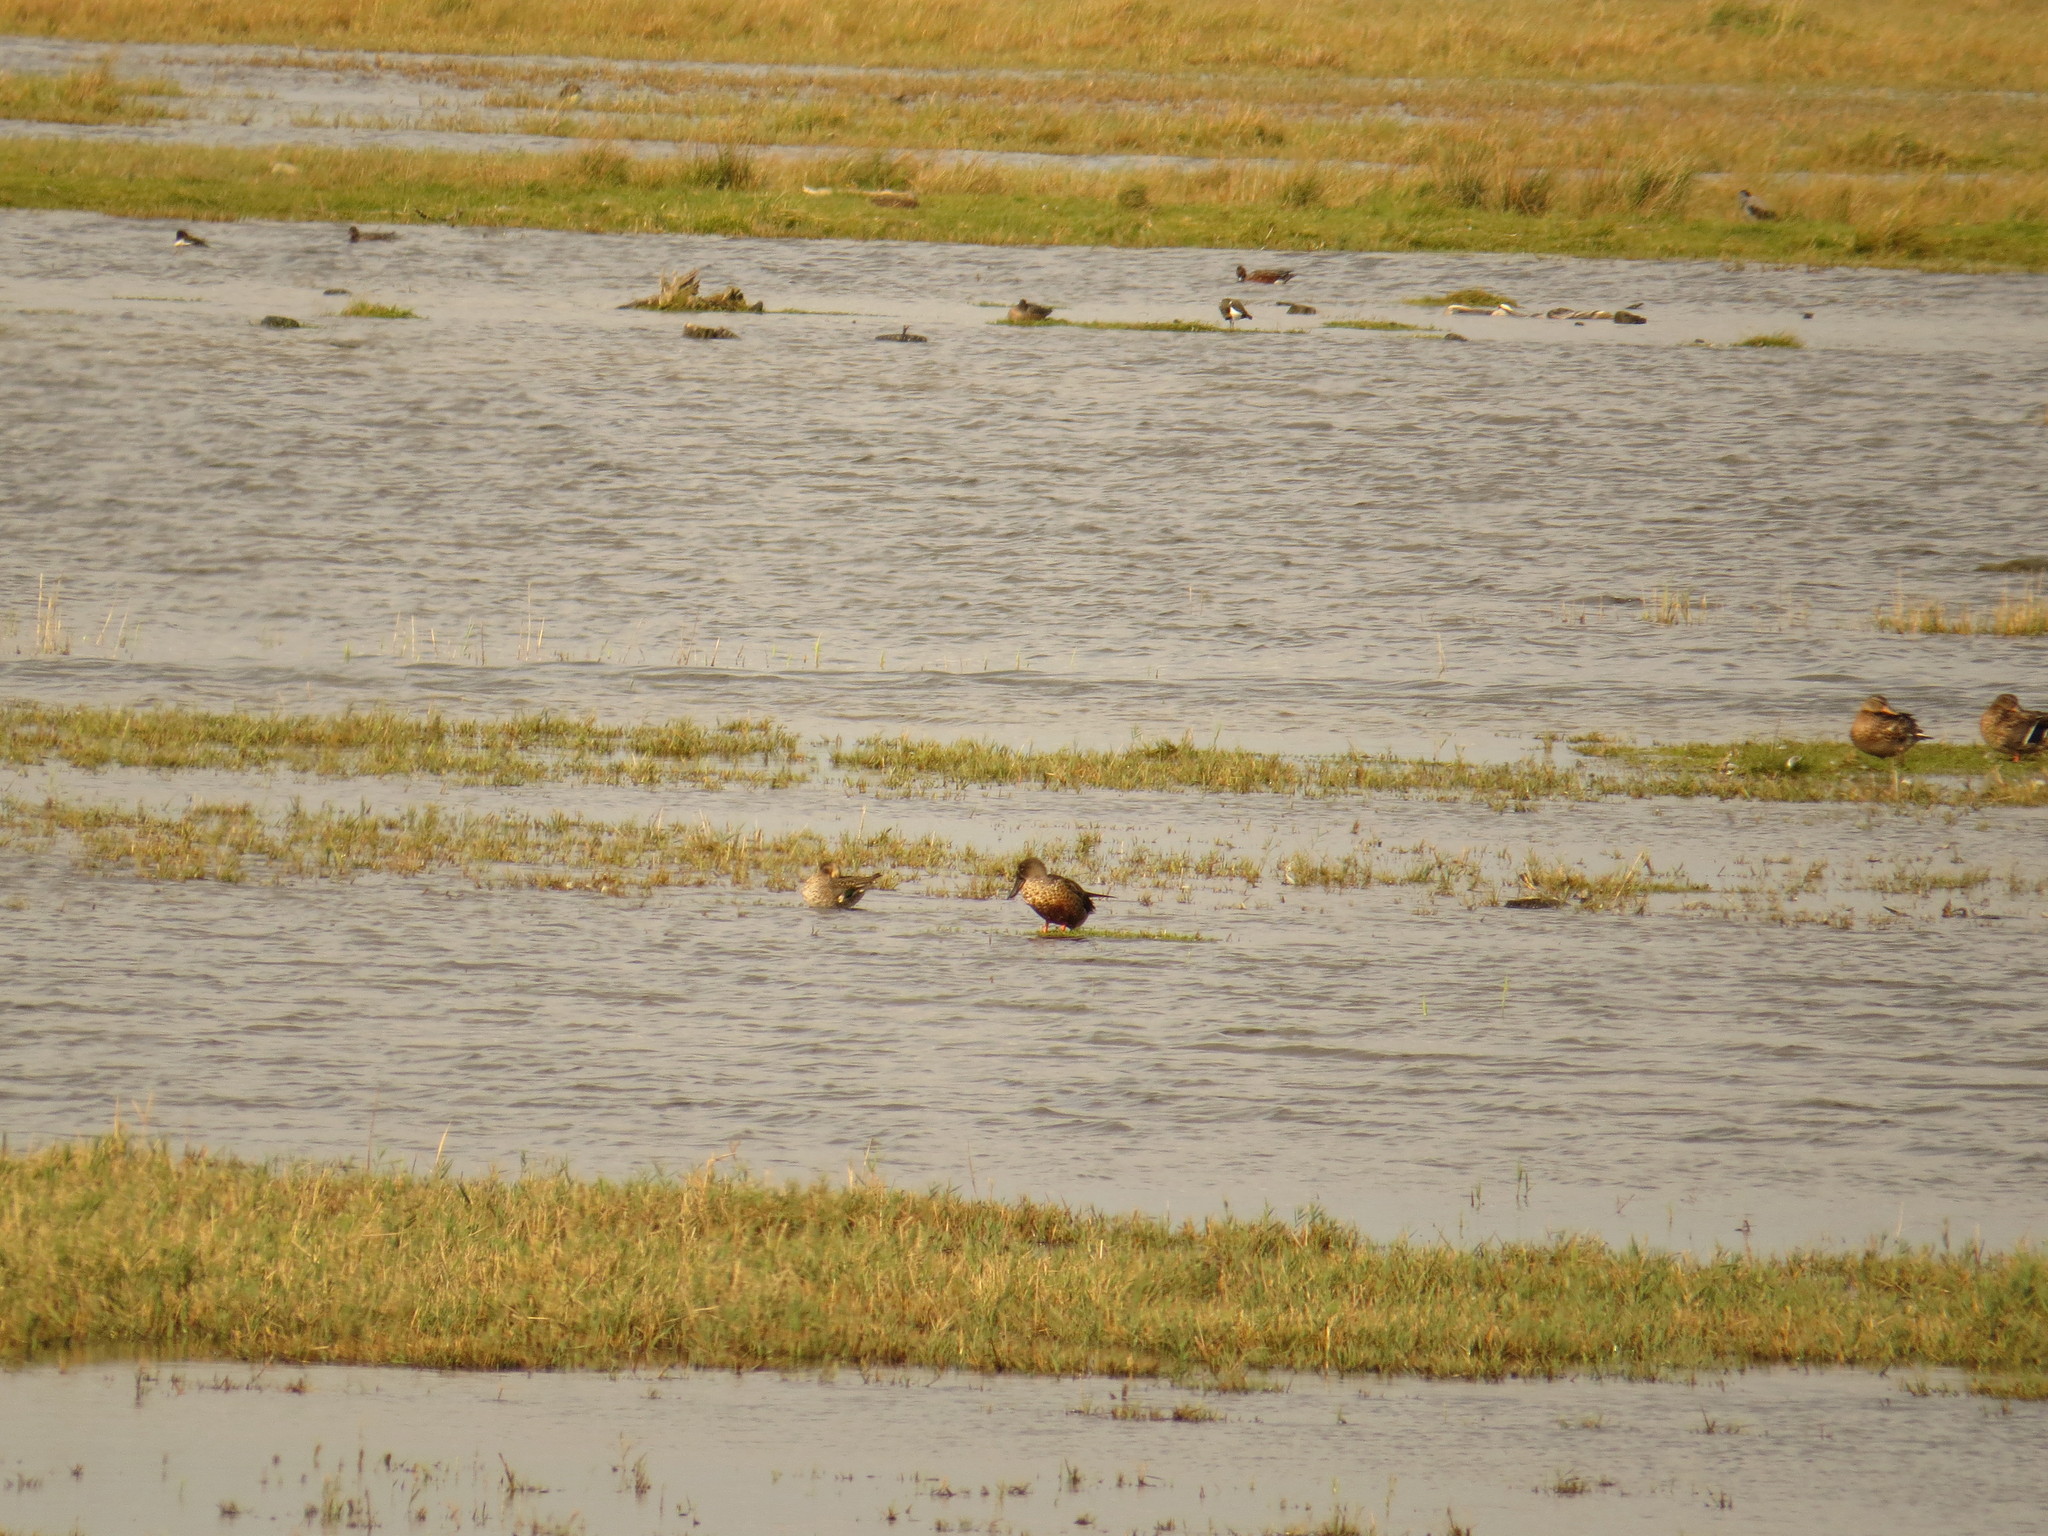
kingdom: Animalia
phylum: Chordata
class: Aves
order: Anseriformes
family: Anatidae
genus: Spatula
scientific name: Spatula clypeata
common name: Northern shoveler
